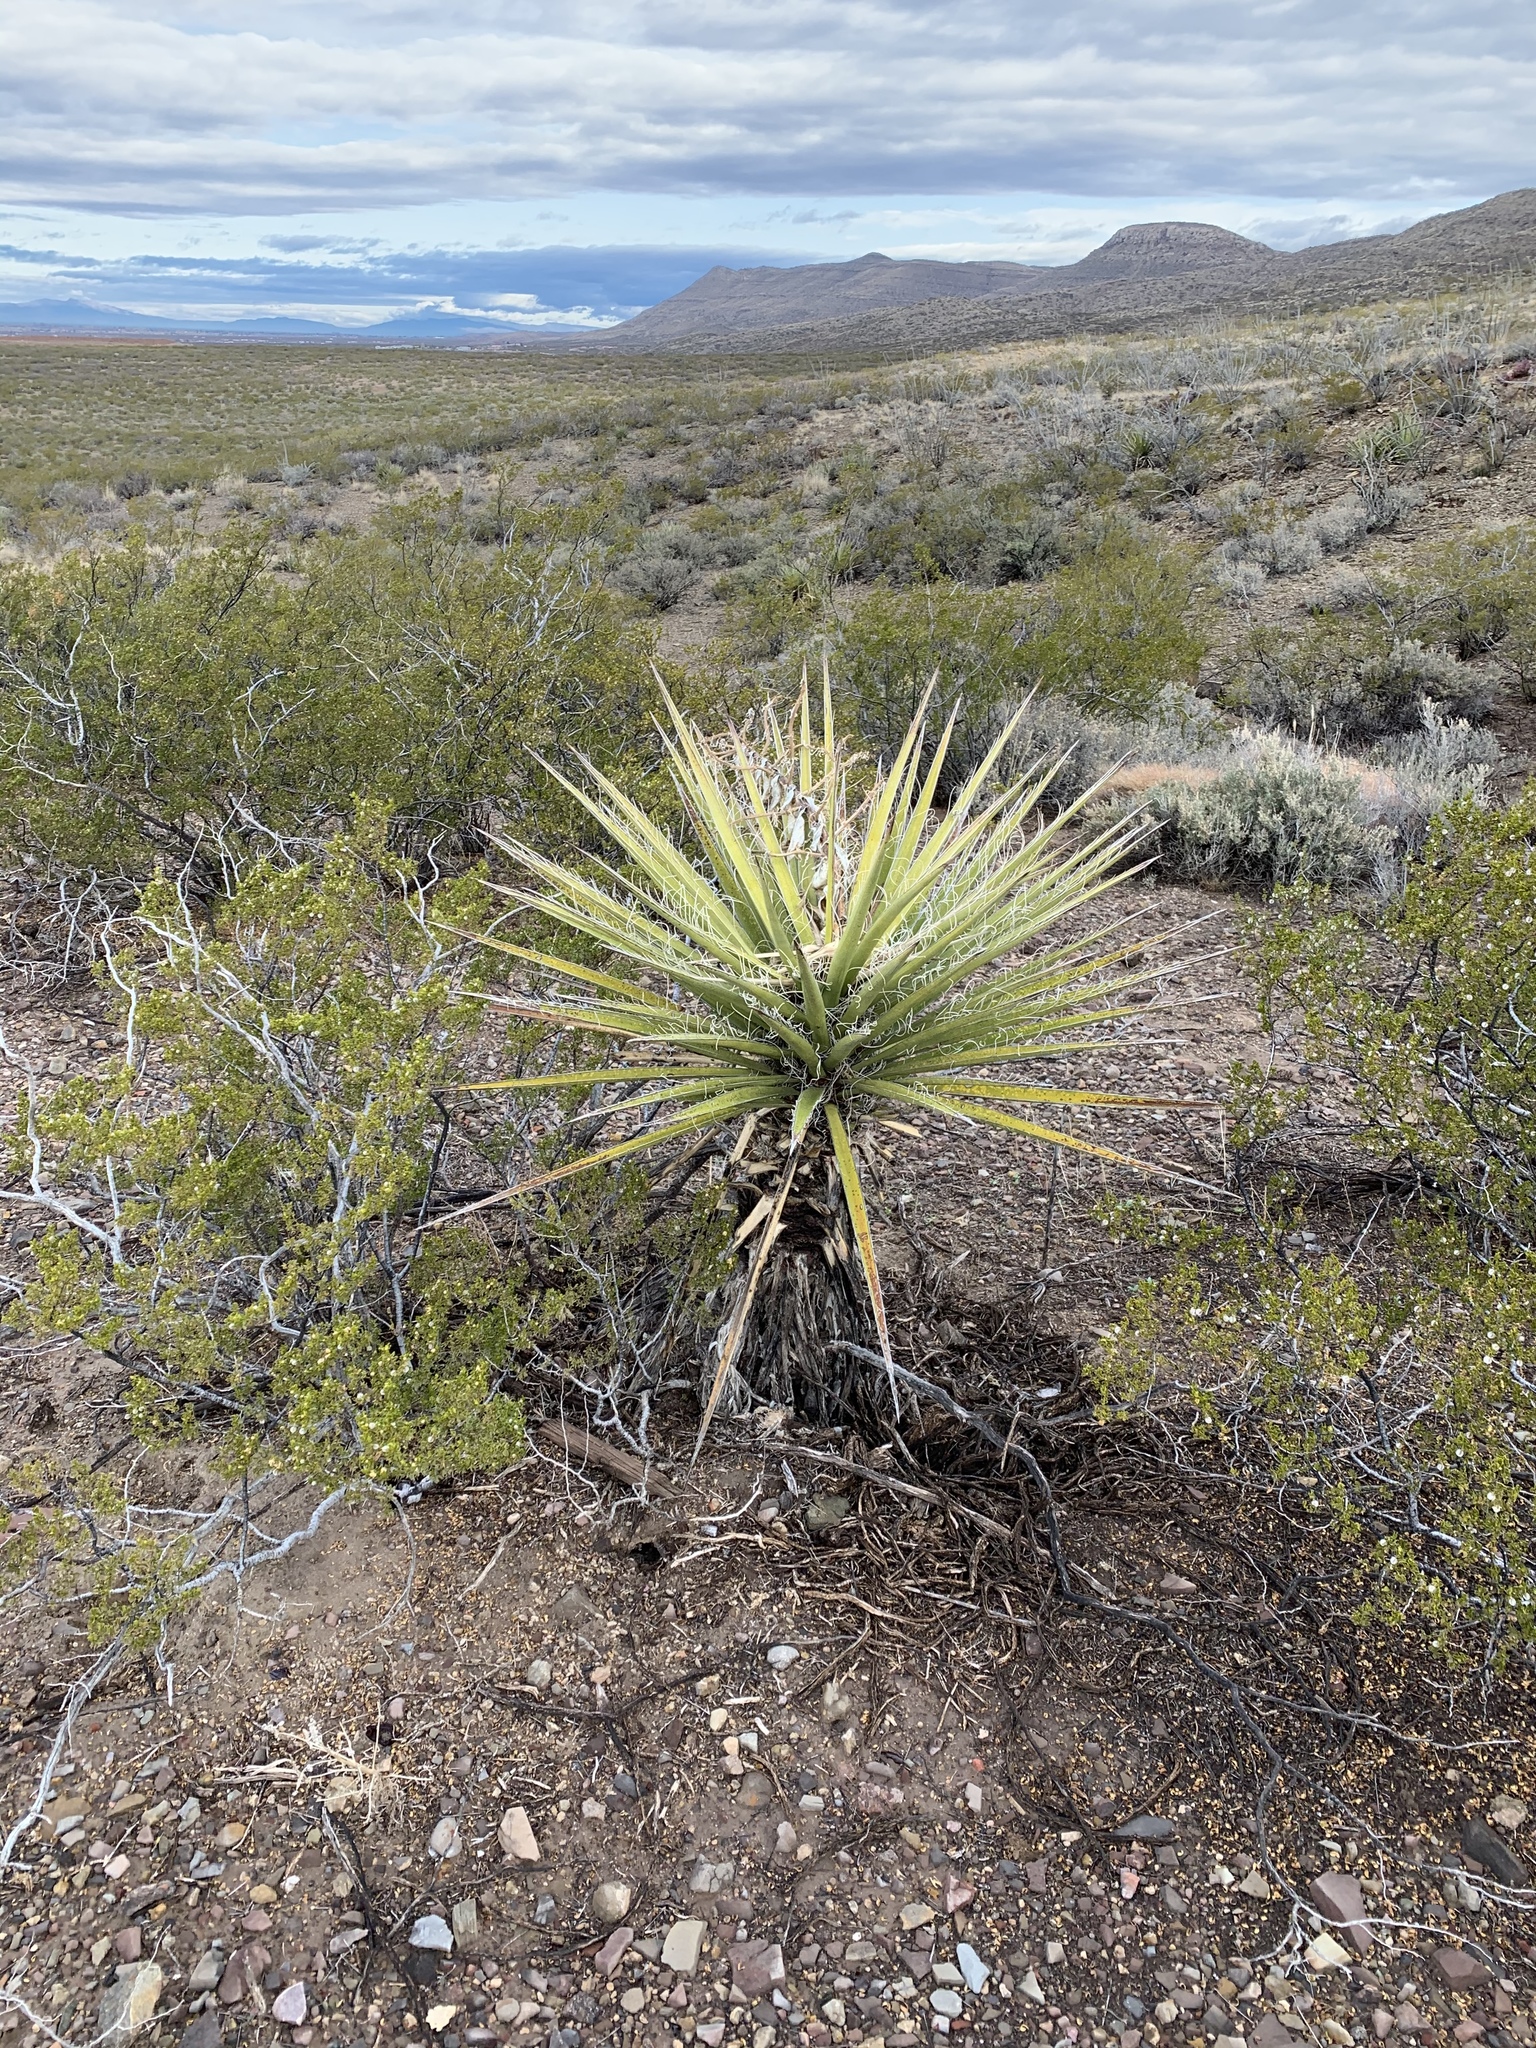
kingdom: Plantae
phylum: Tracheophyta
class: Liliopsida
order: Asparagales
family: Asparagaceae
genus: Yucca
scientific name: Yucca treculiana
